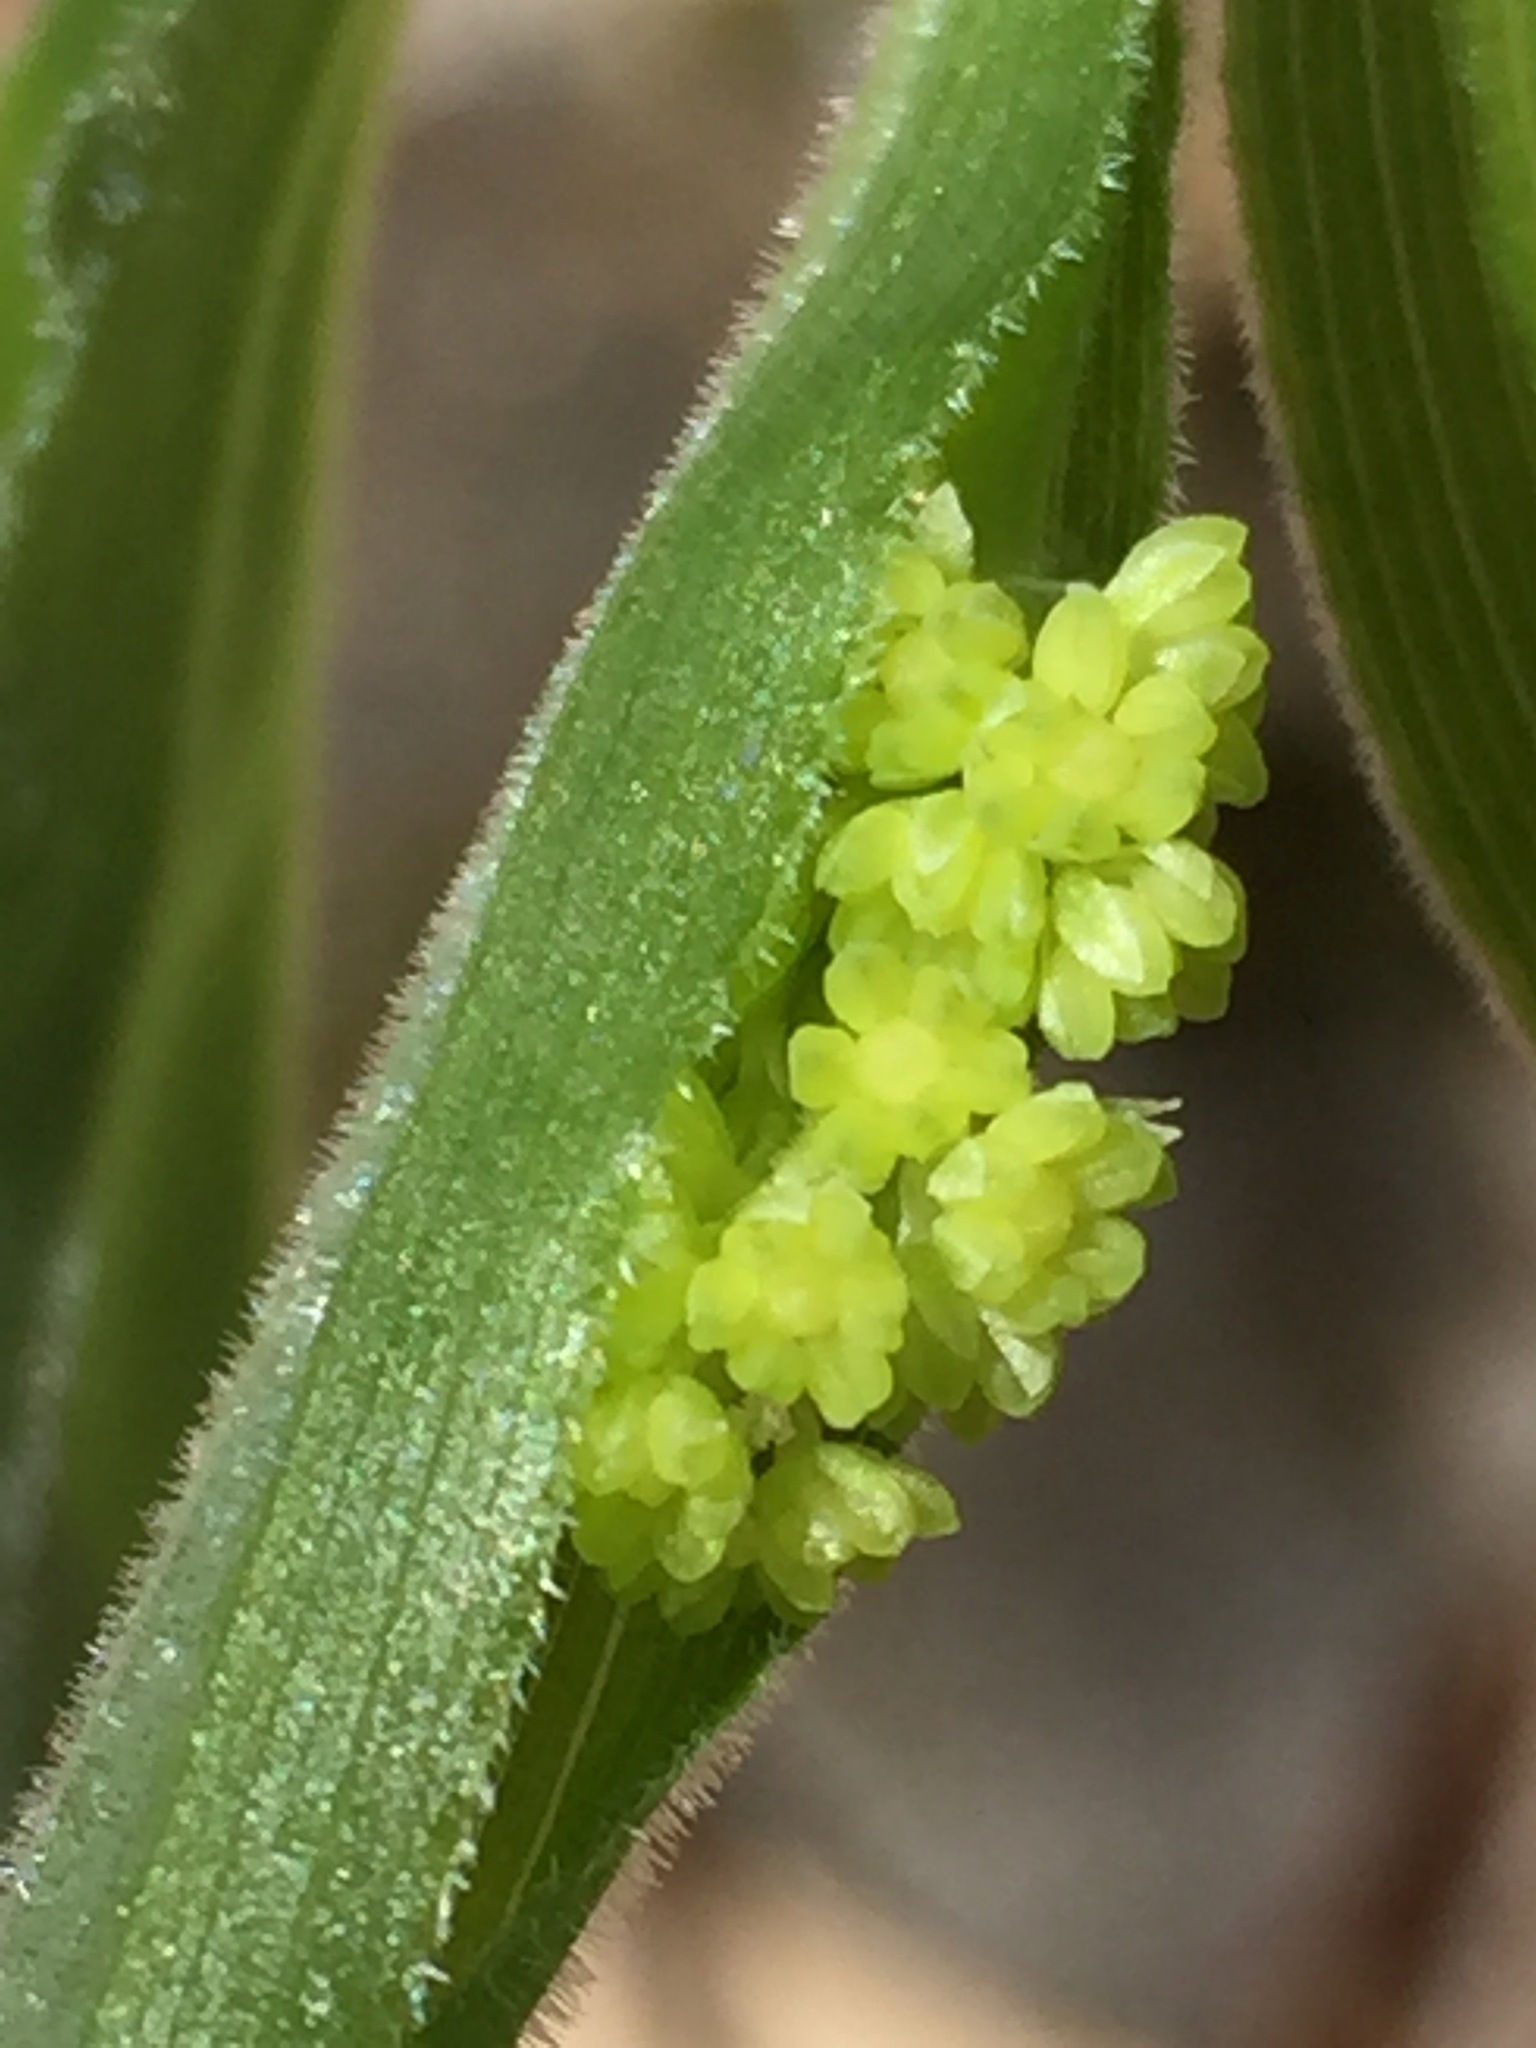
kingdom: Plantae
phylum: Tracheophyta
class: Liliopsida
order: Asparagales
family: Asparagaceae
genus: Maianthemum
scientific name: Maianthemum racemosum
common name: False spikenard
